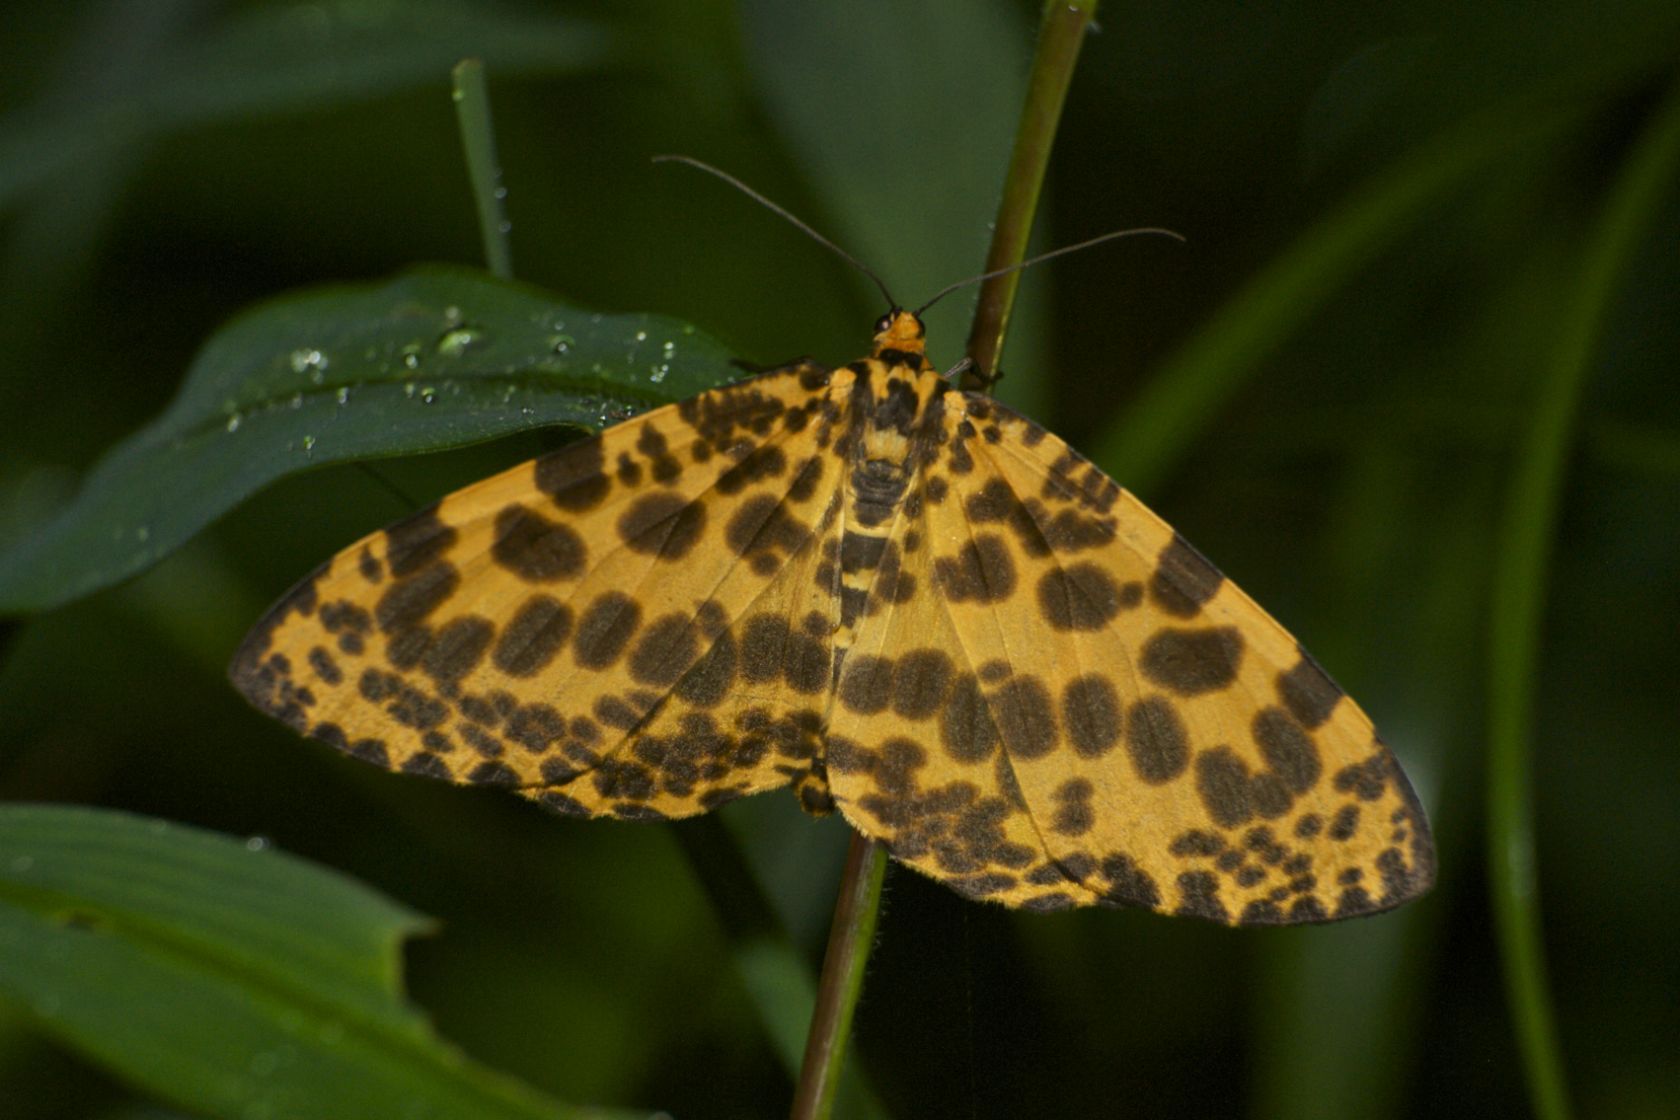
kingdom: Animalia
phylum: Arthropoda
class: Insecta
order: Lepidoptera
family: Geometridae
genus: Obeidia
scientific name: Obeidia Epobeidia tigrata
